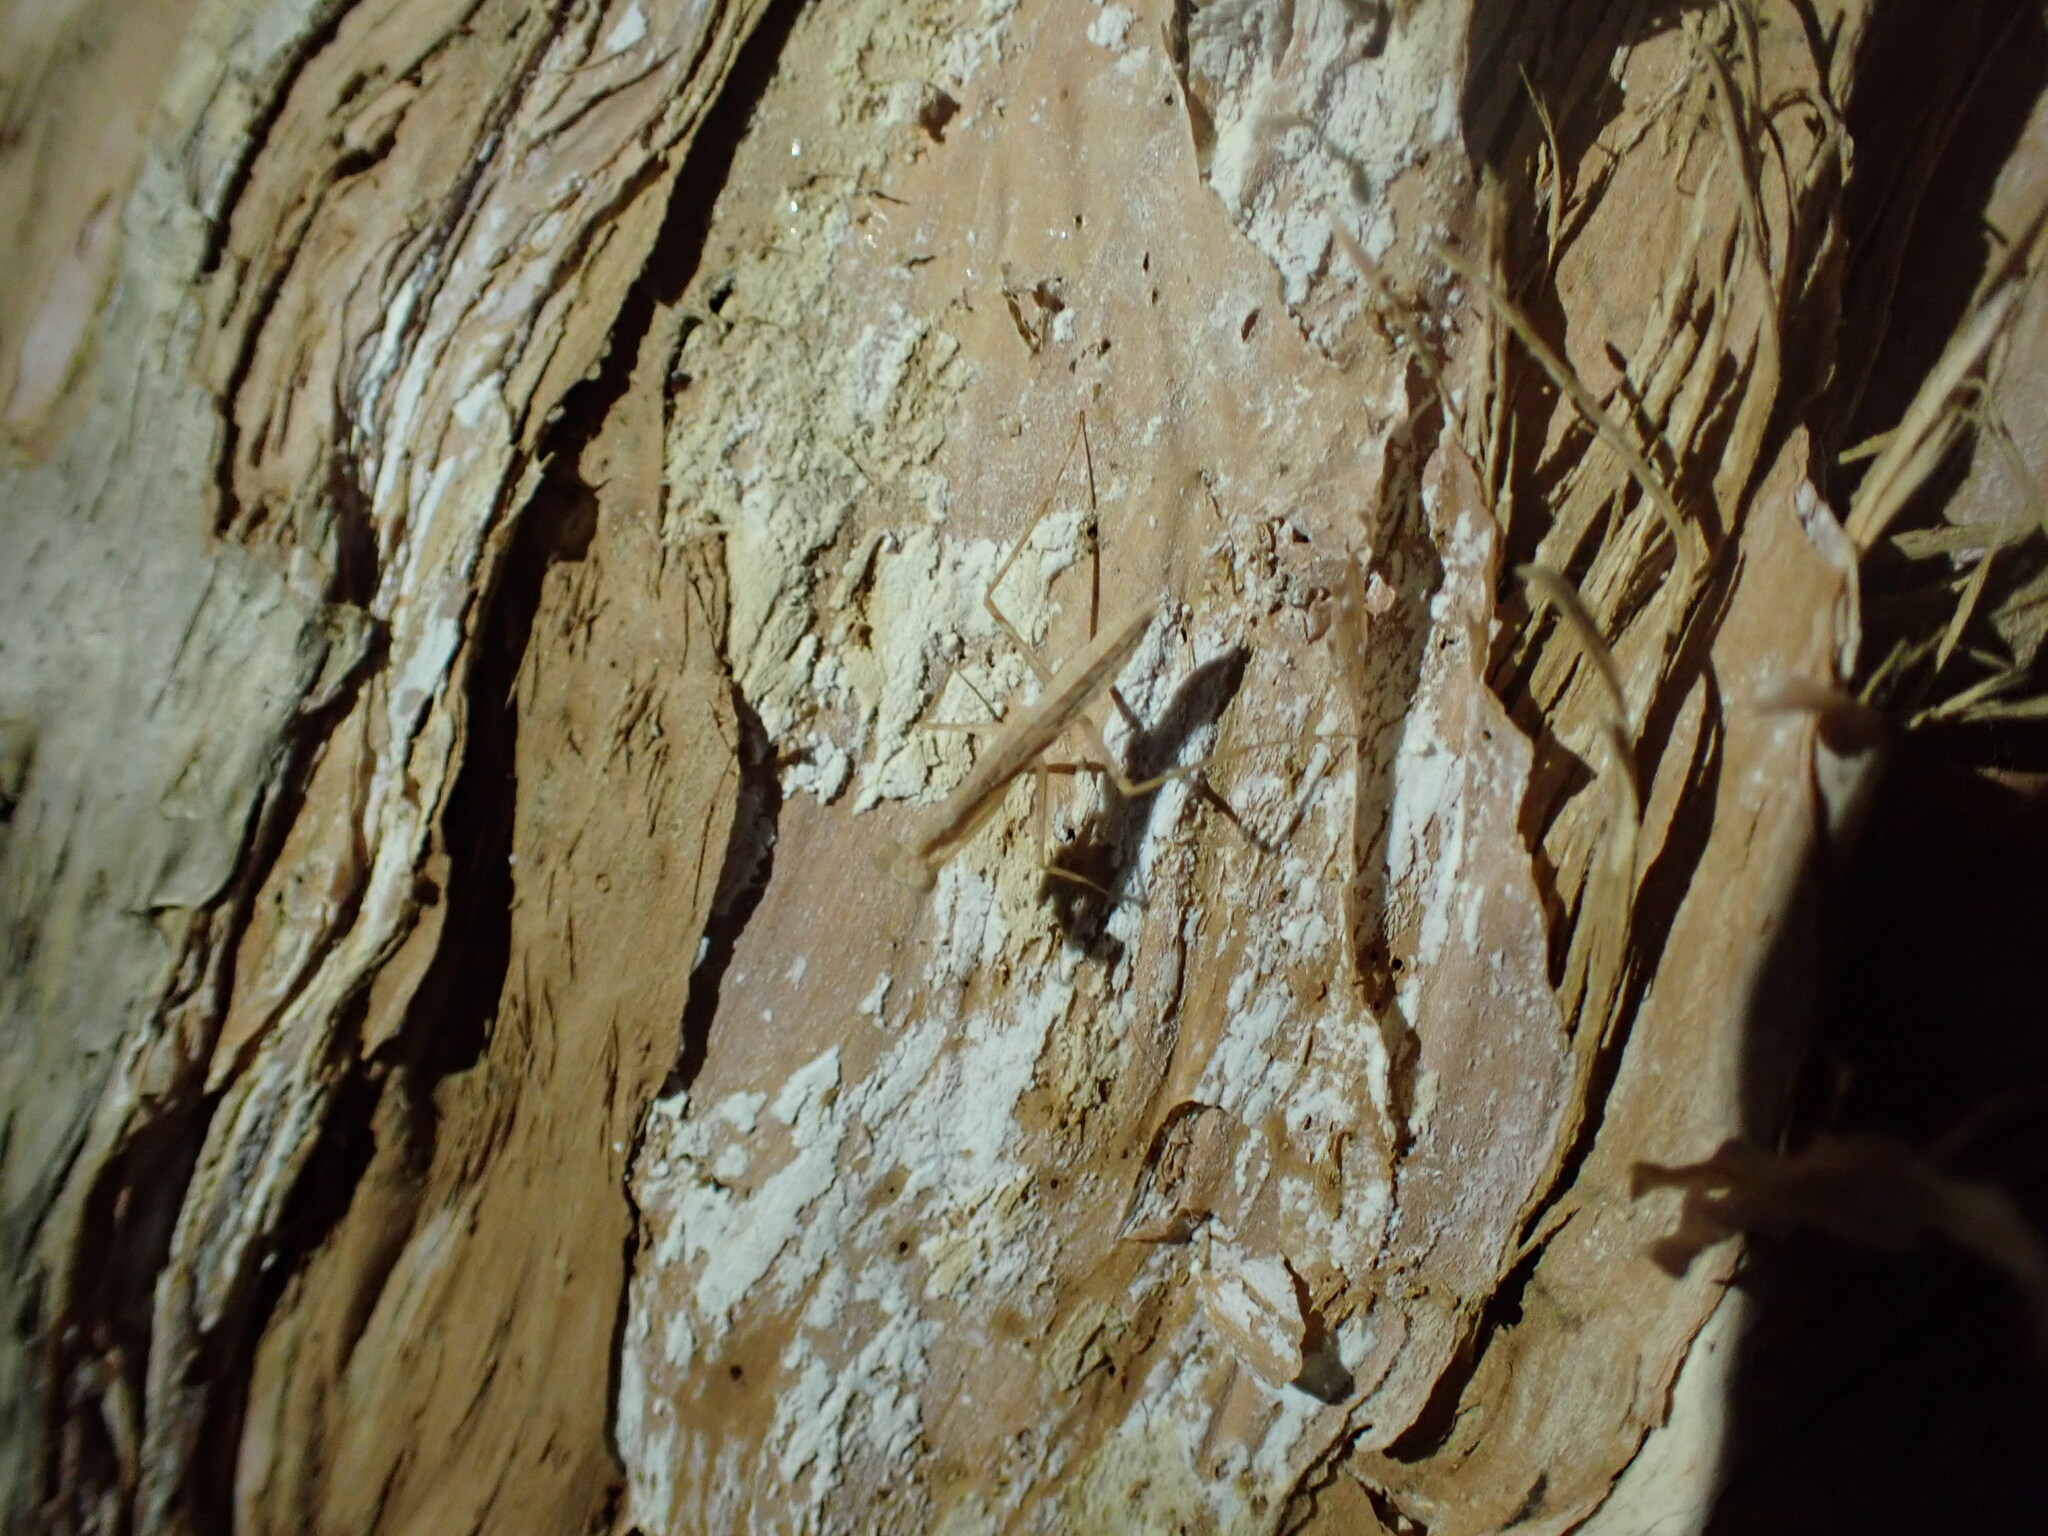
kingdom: Animalia
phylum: Arthropoda
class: Insecta
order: Mantodea
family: Nanomantidae
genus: Ima
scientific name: Ima fusca
